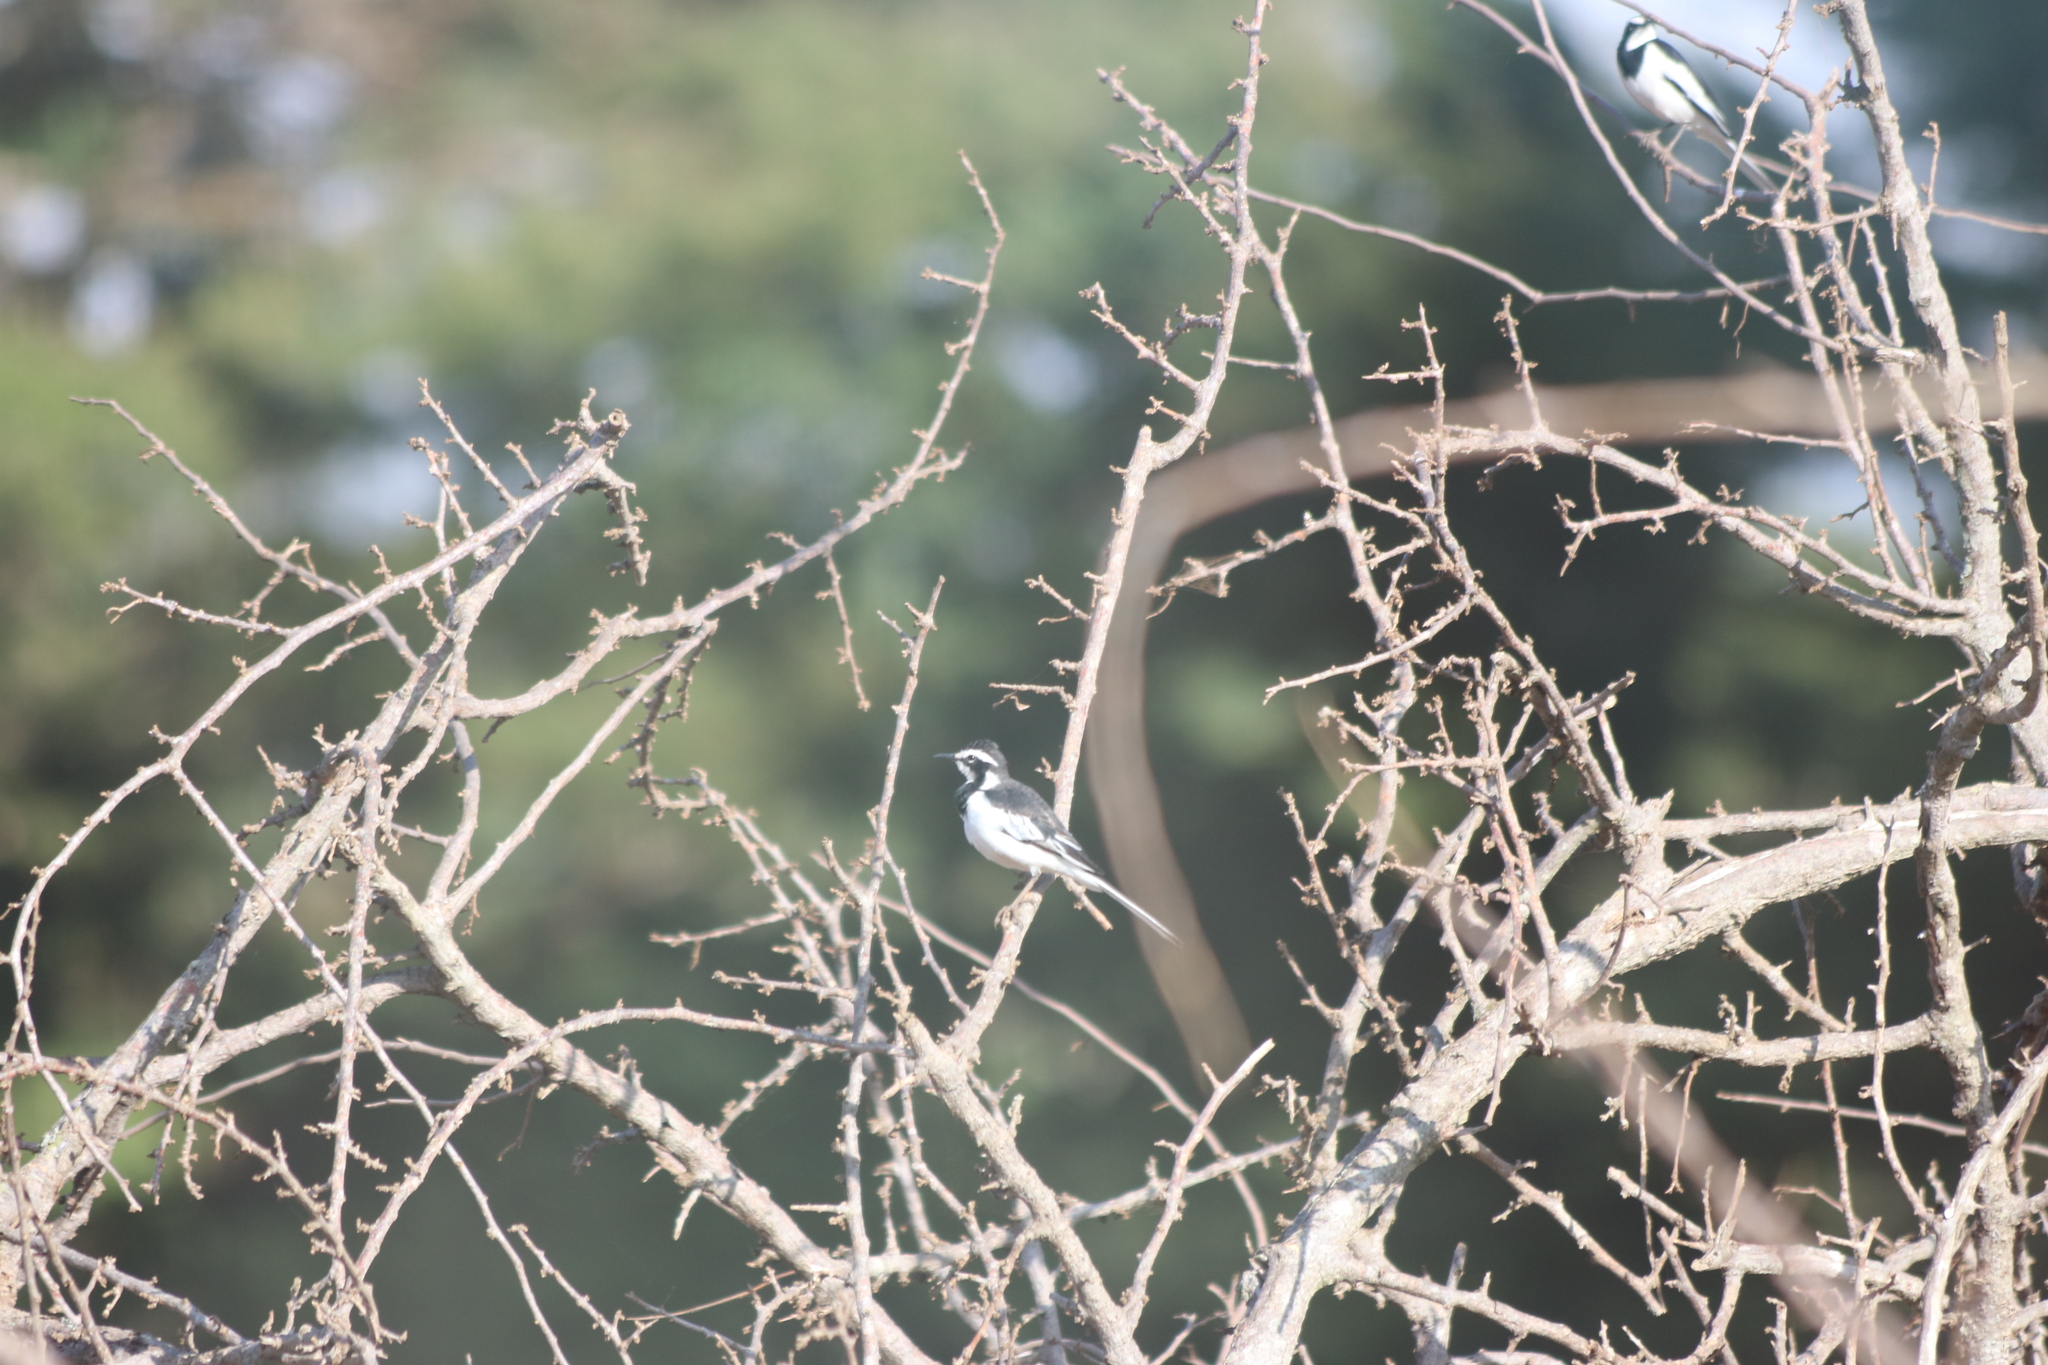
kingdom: Animalia
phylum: Chordata
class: Aves
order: Passeriformes
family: Motacillidae
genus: Motacilla
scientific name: Motacilla aguimp
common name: African pied wagtail
